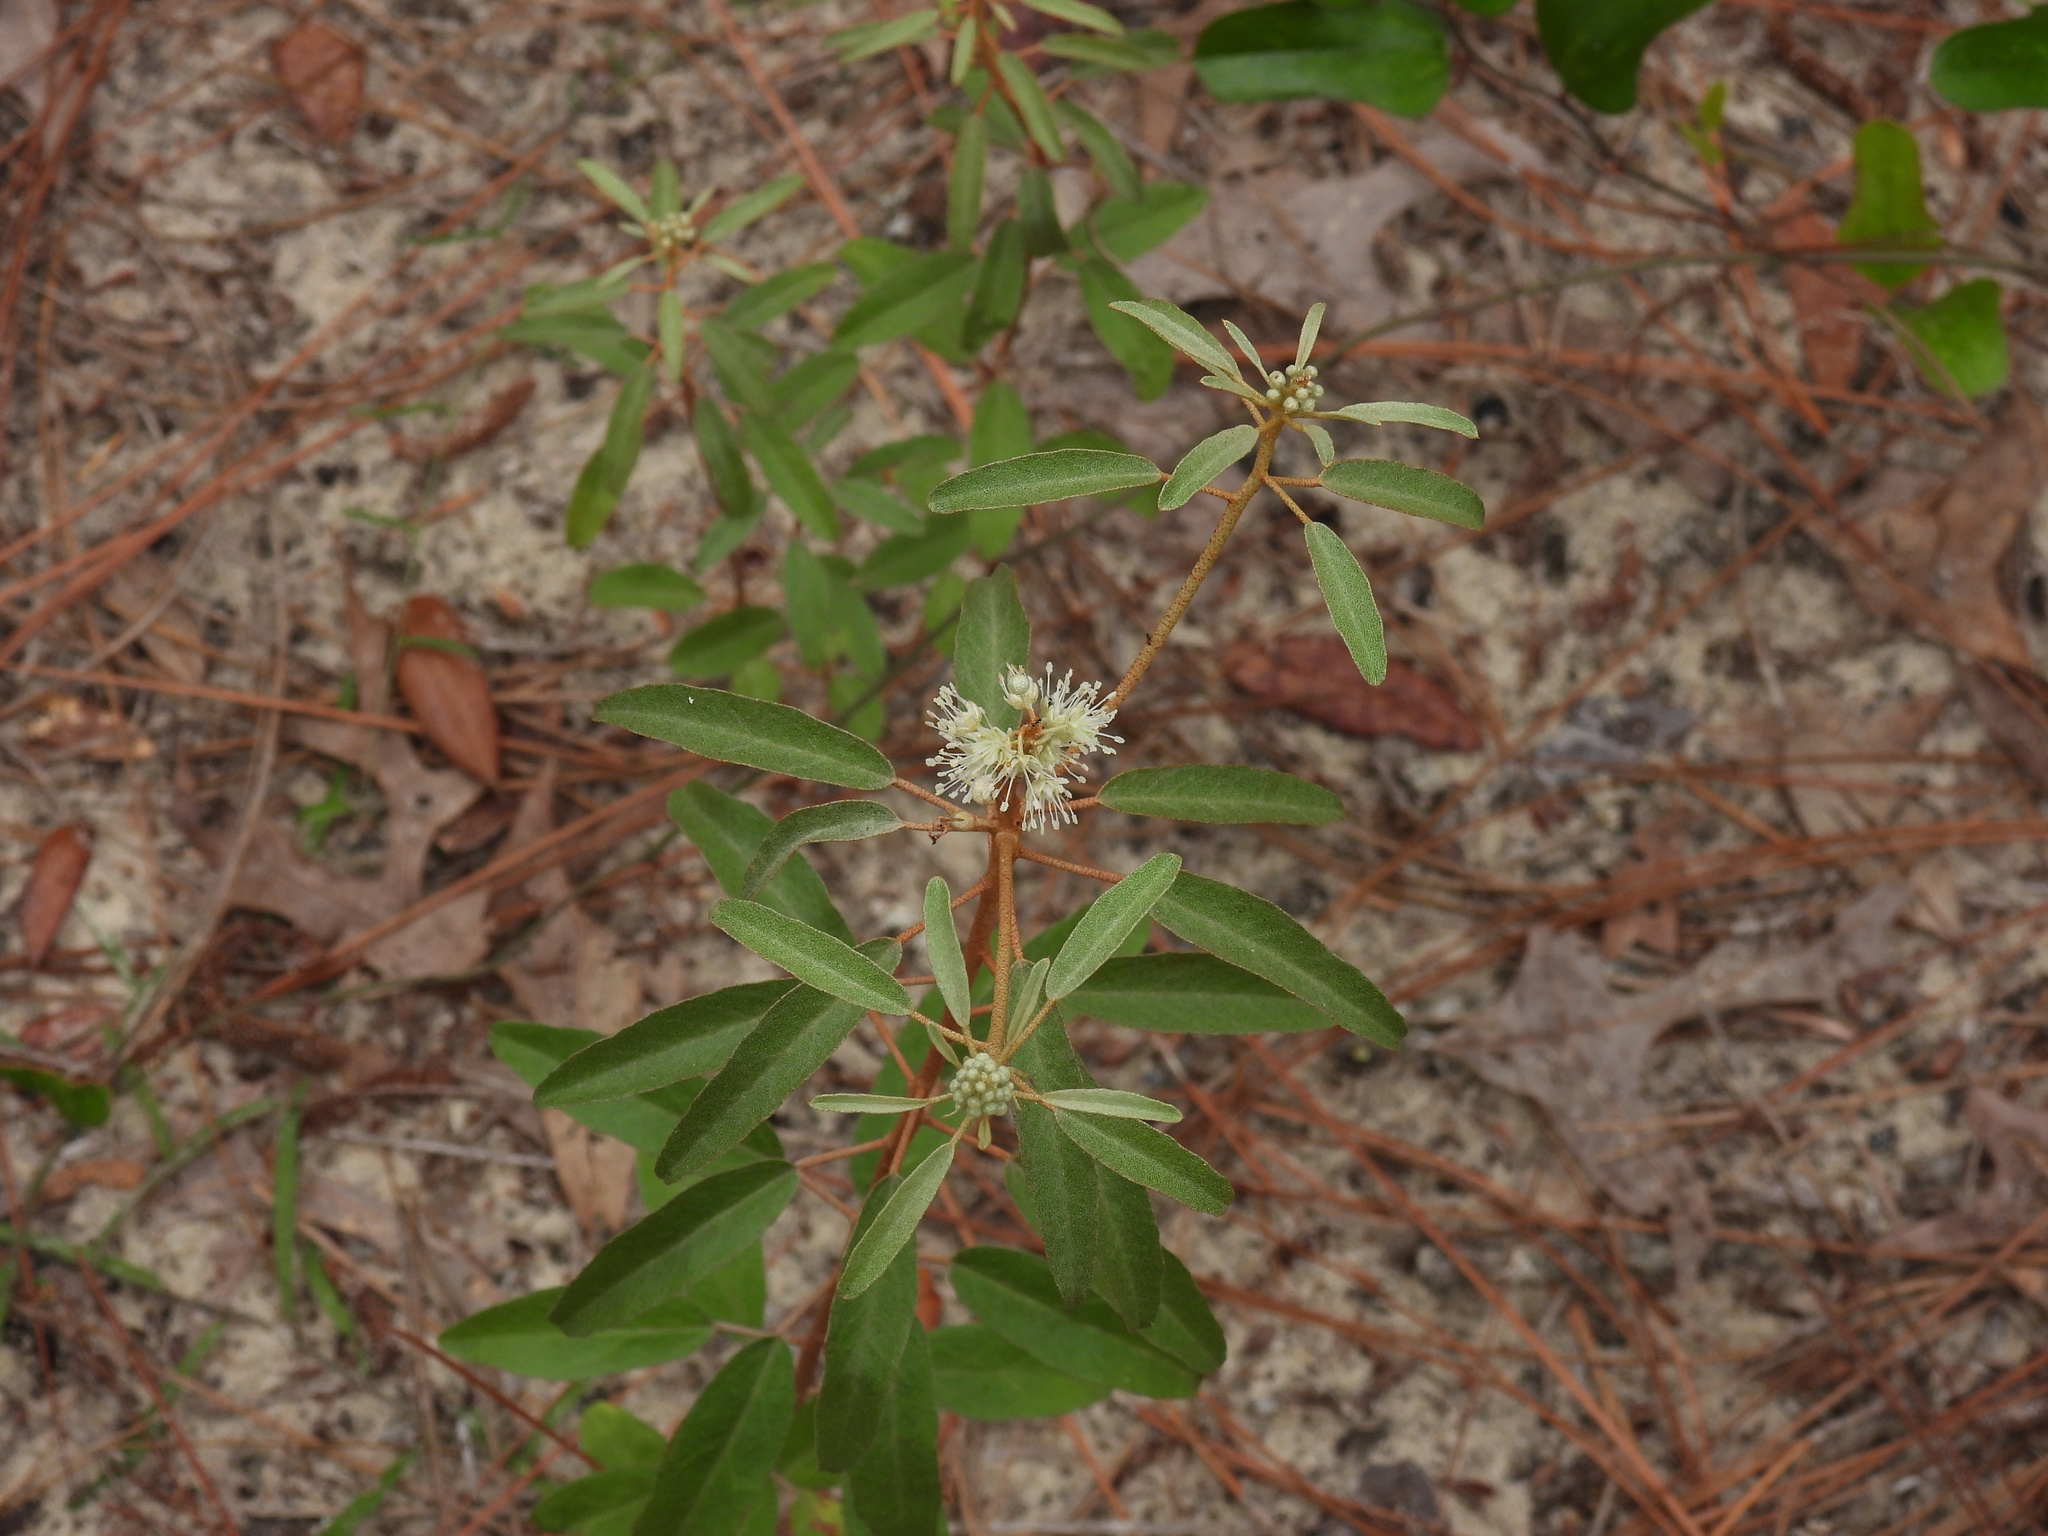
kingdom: Plantae
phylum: Tracheophyta
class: Magnoliopsida
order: Malpighiales
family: Euphorbiaceae
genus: Croton
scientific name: Croton argyranthemus
